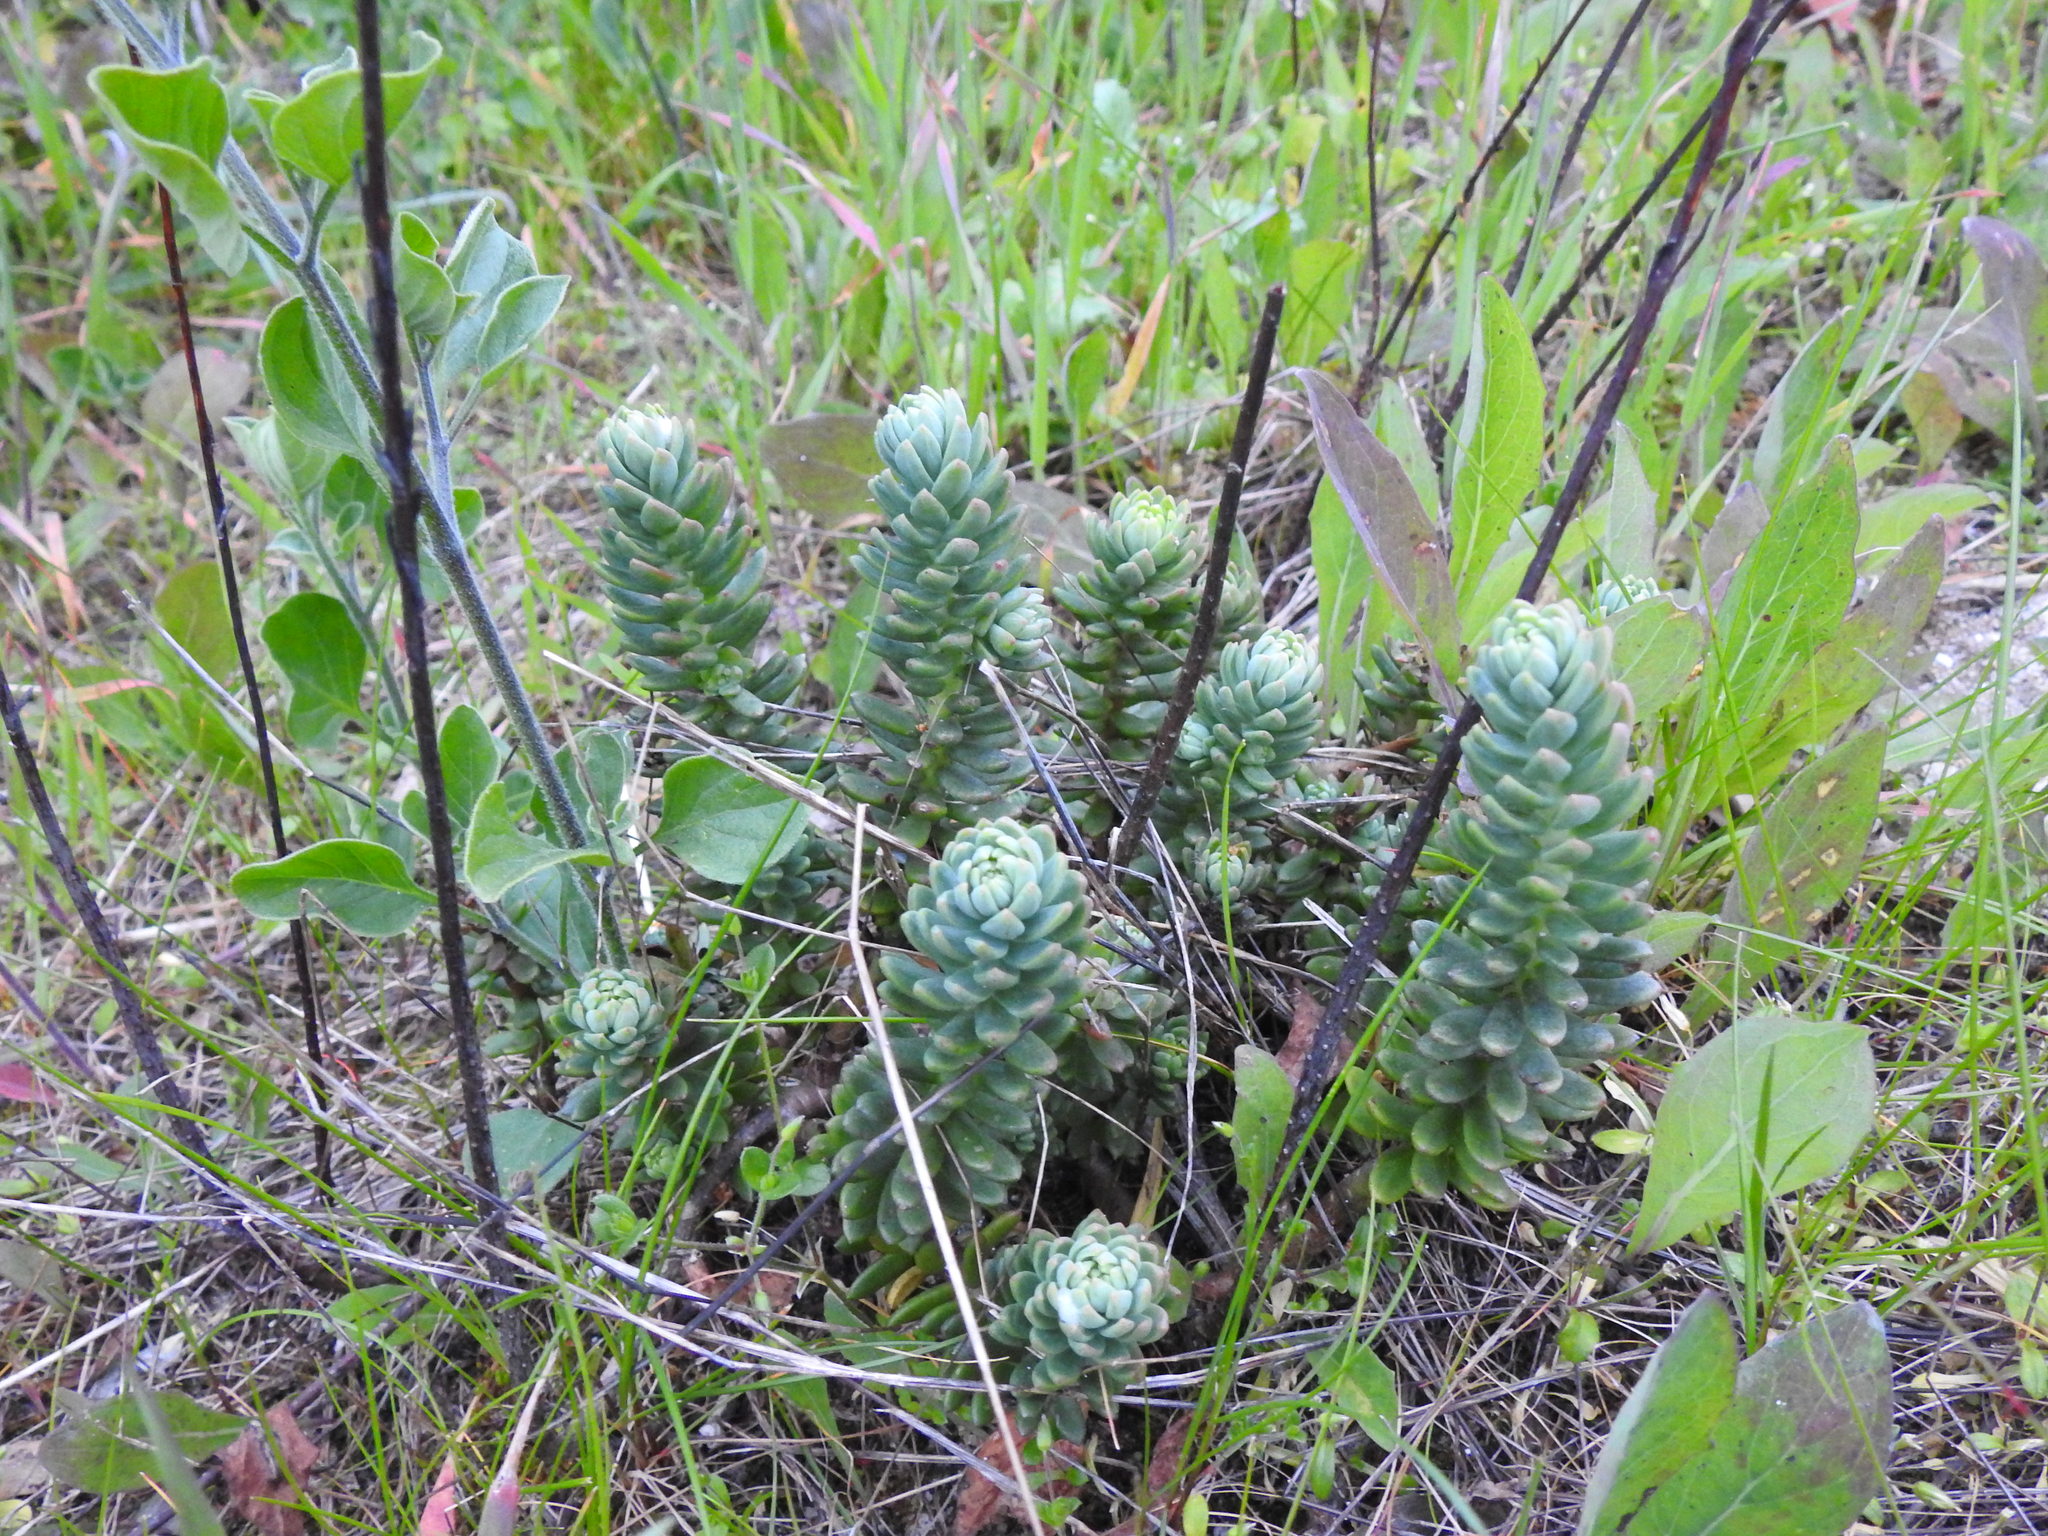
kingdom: Plantae
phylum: Tracheophyta
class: Magnoliopsida
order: Saxifragales
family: Crassulaceae
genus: Petrosedum
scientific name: Petrosedum sediforme
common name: Pale stonecrop
